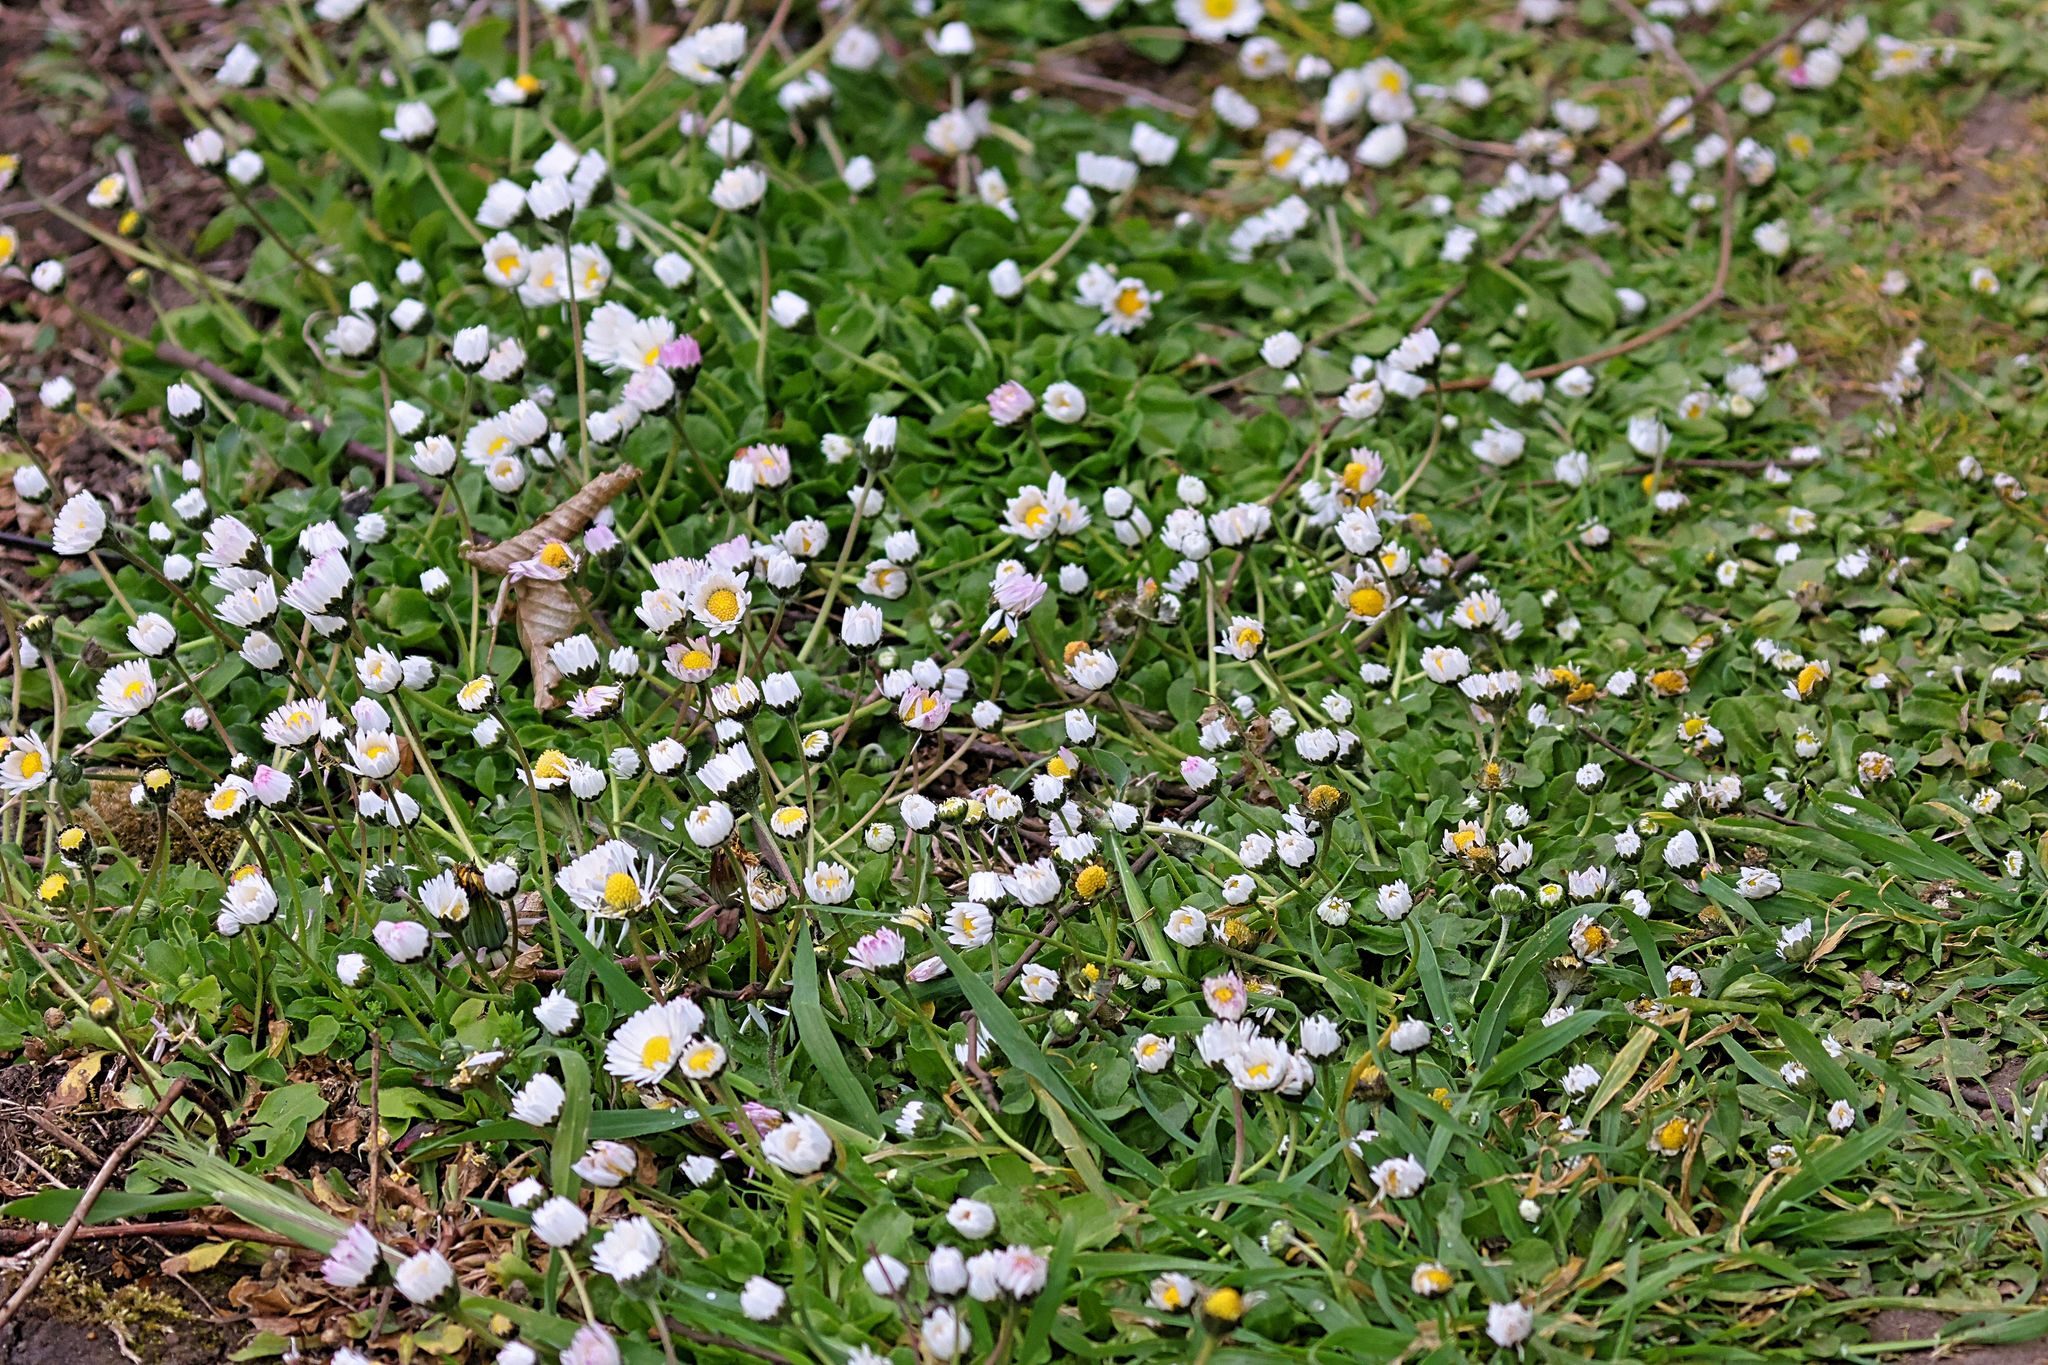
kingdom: Plantae
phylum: Tracheophyta
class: Magnoliopsida
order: Asterales
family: Asteraceae
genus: Bellis
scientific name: Bellis perennis
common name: Lawndaisy
